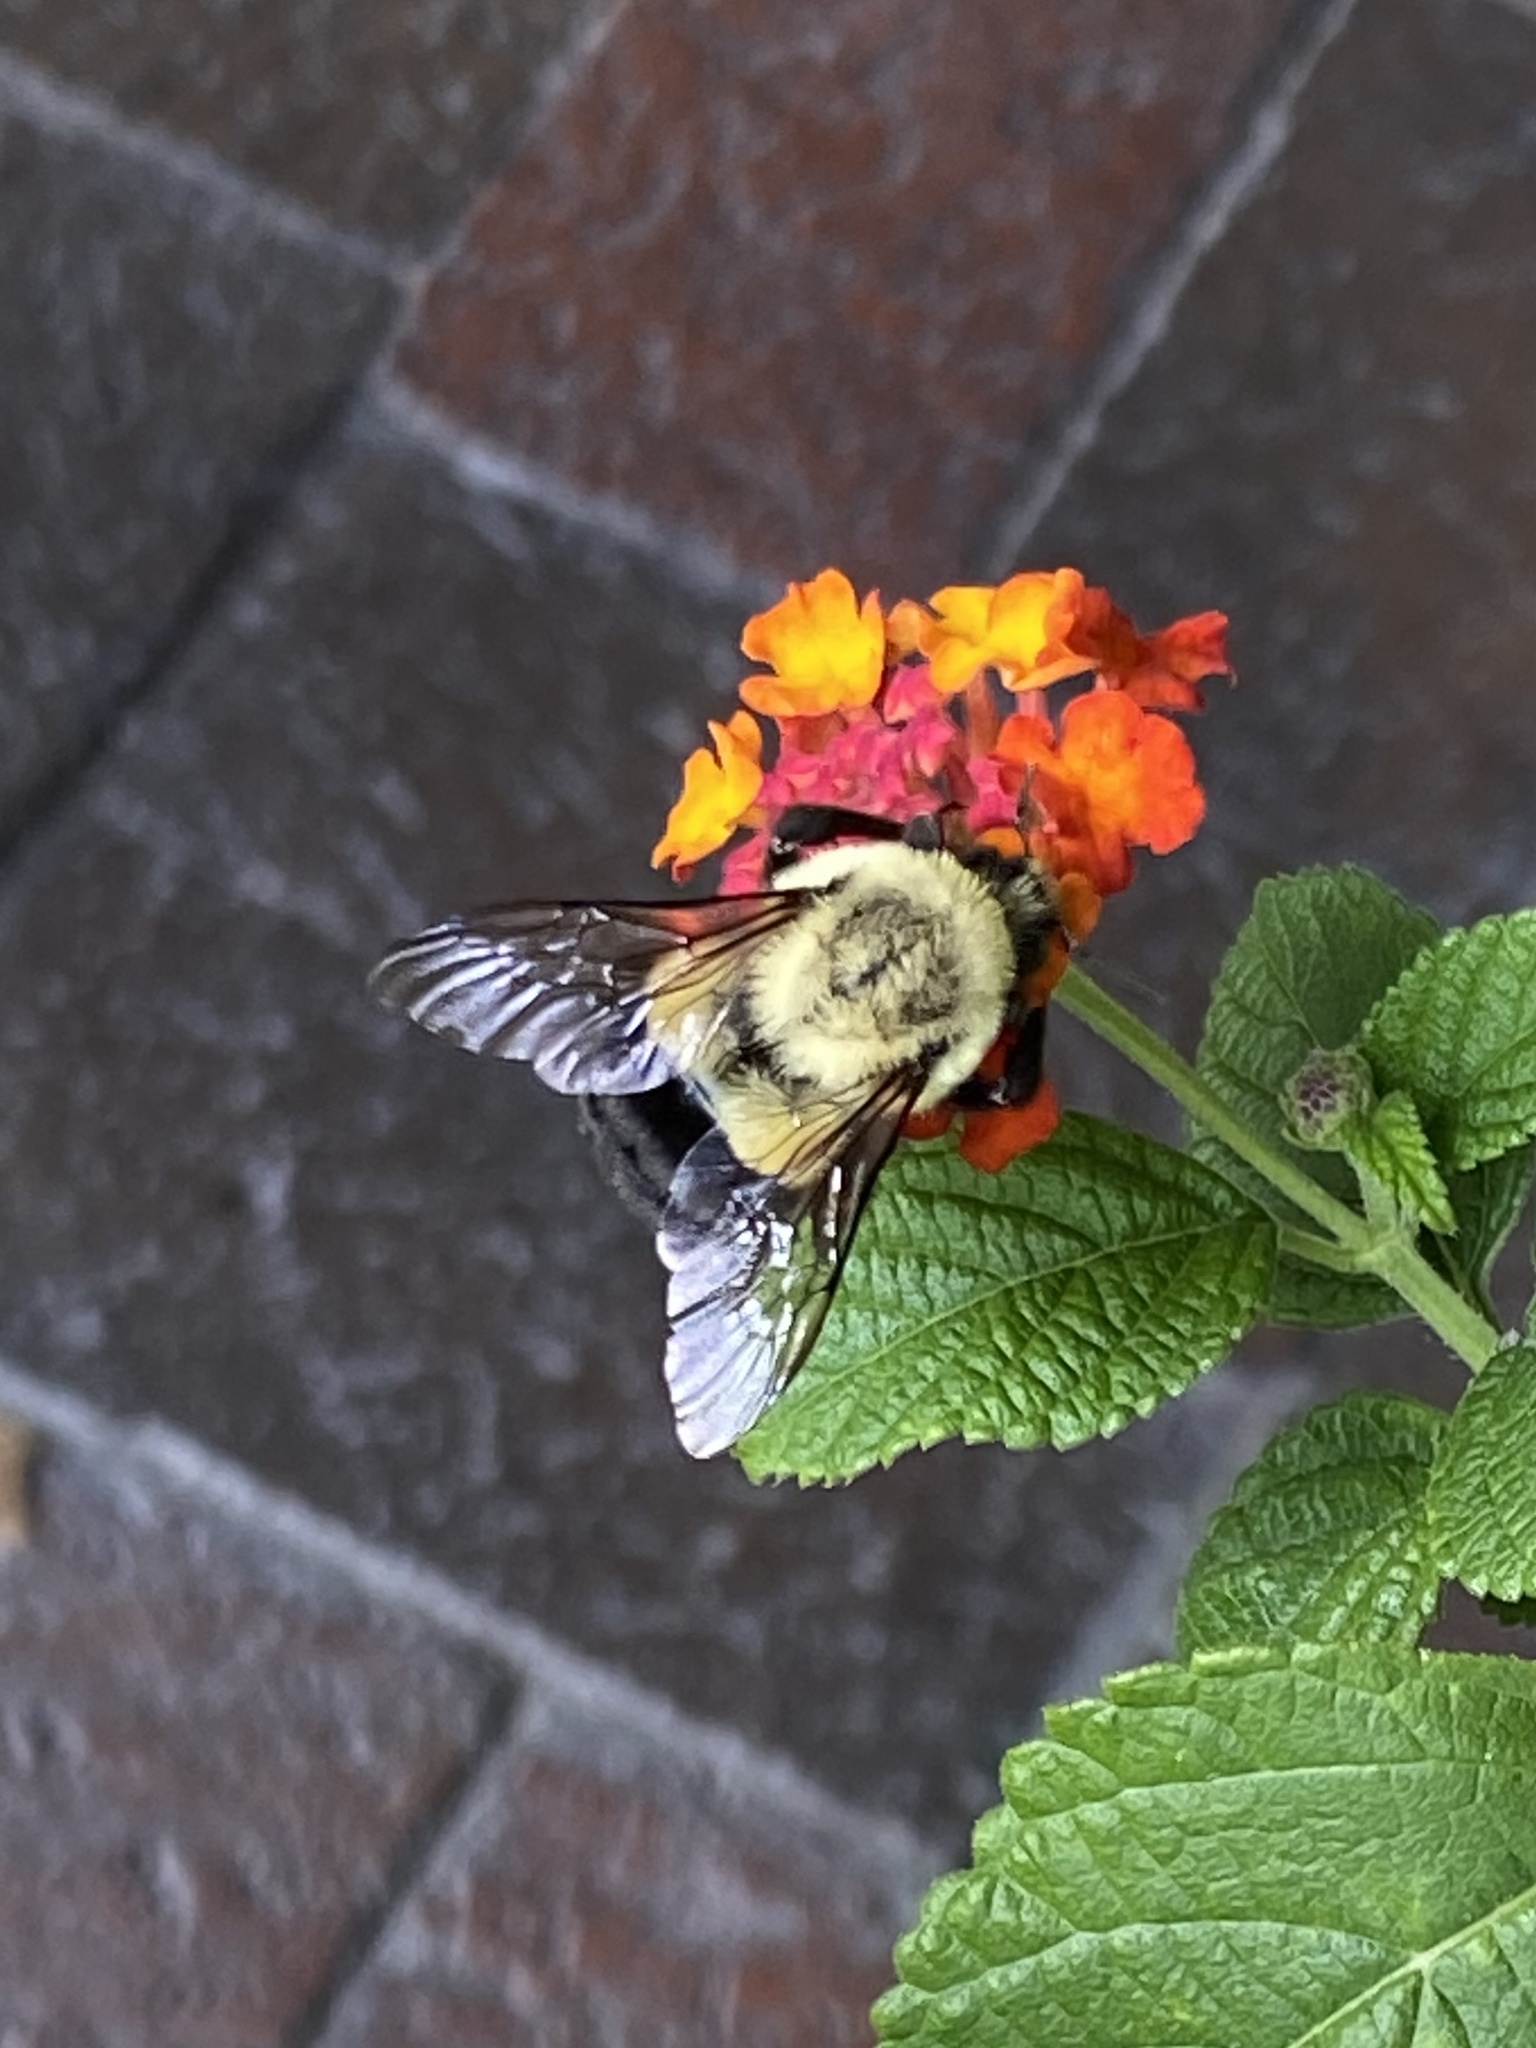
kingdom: Animalia
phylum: Arthropoda
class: Insecta
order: Hymenoptera
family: Apidae
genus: Bombus
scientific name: Bombus impatiens
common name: Common eastern bumble bee
